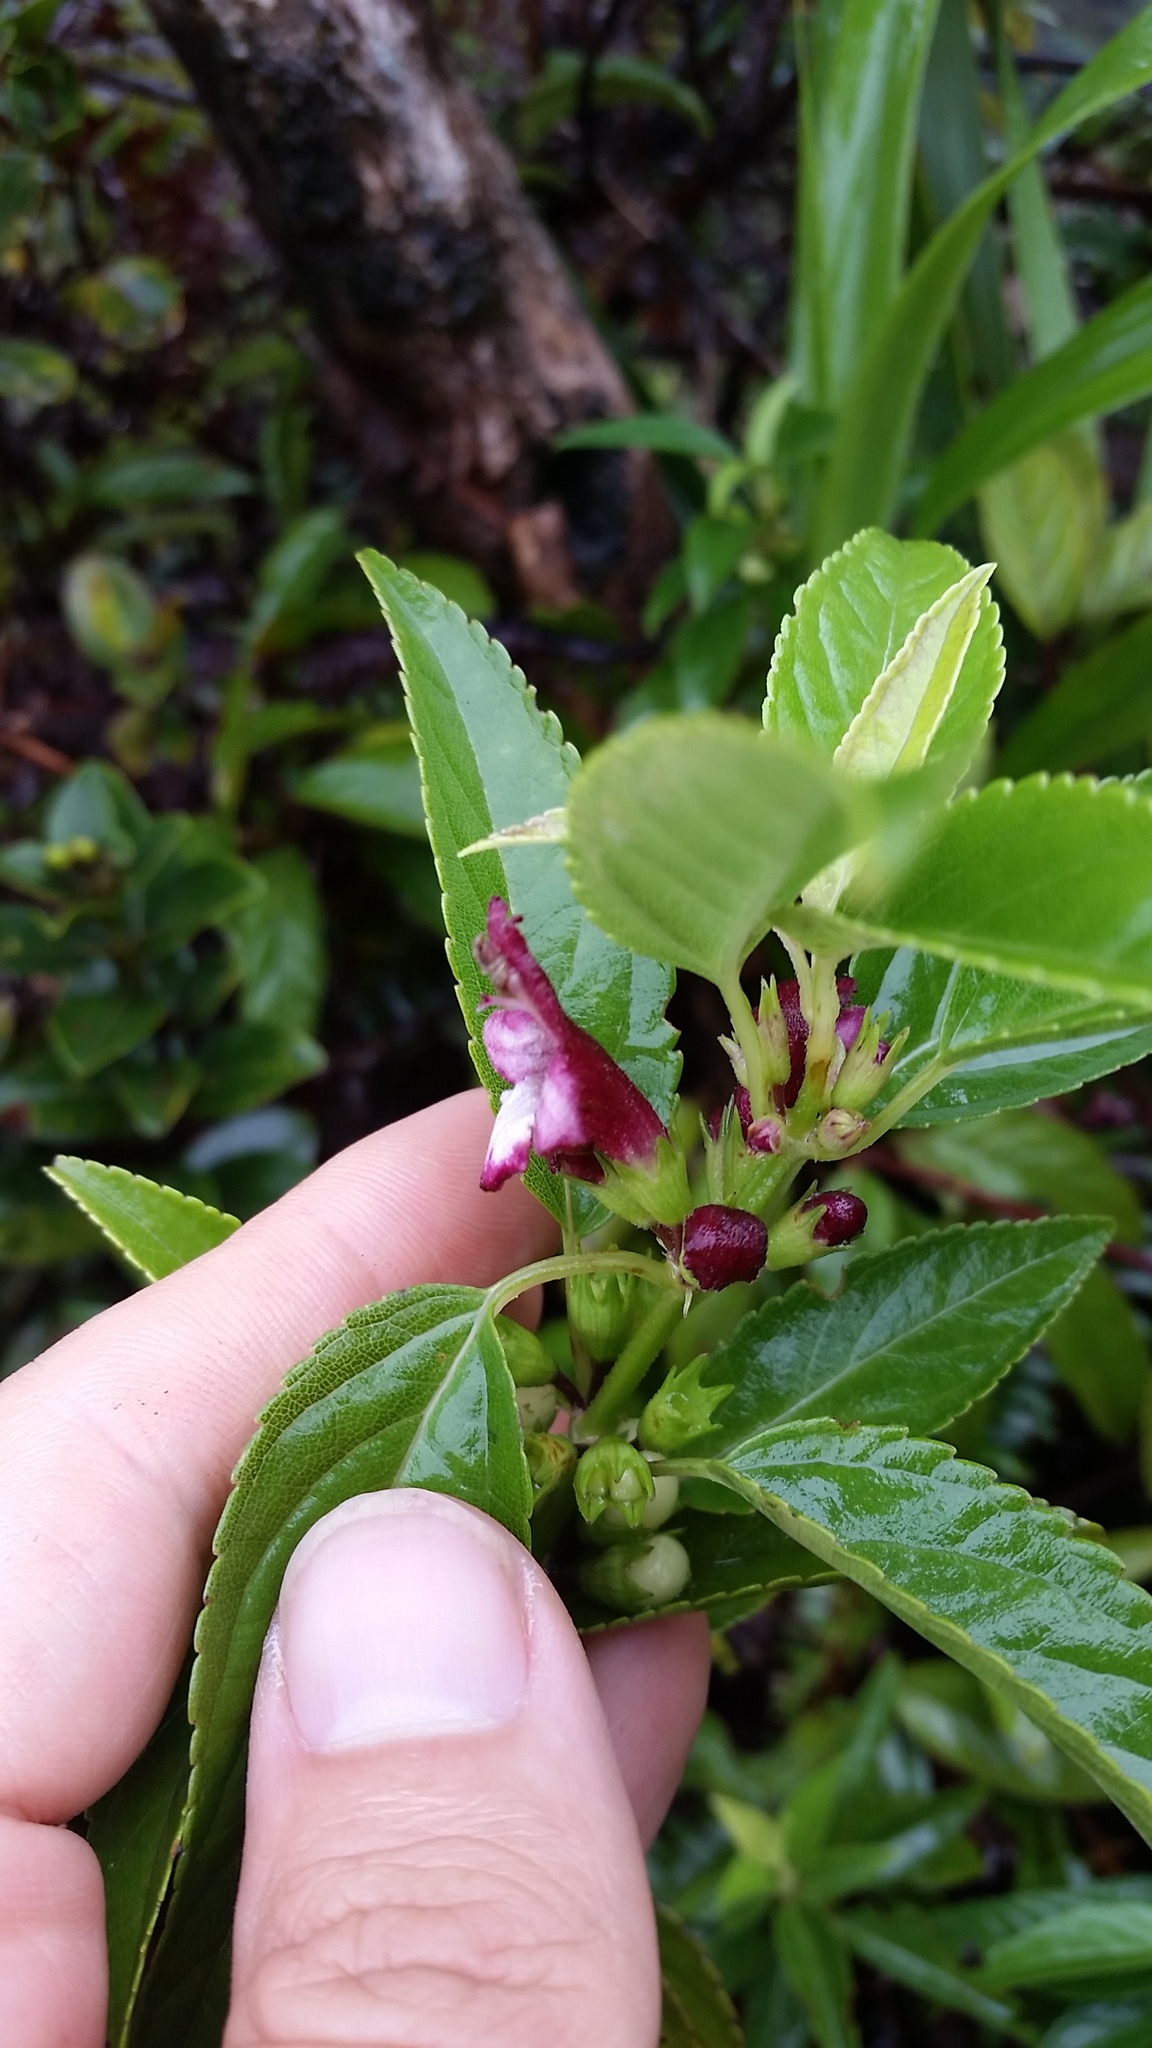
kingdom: Plantae
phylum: Tracheophyta
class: Magnoliopsida
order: Lamiales
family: Lamiaceae
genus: Stenogyne
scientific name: Stenogyne purpurea
